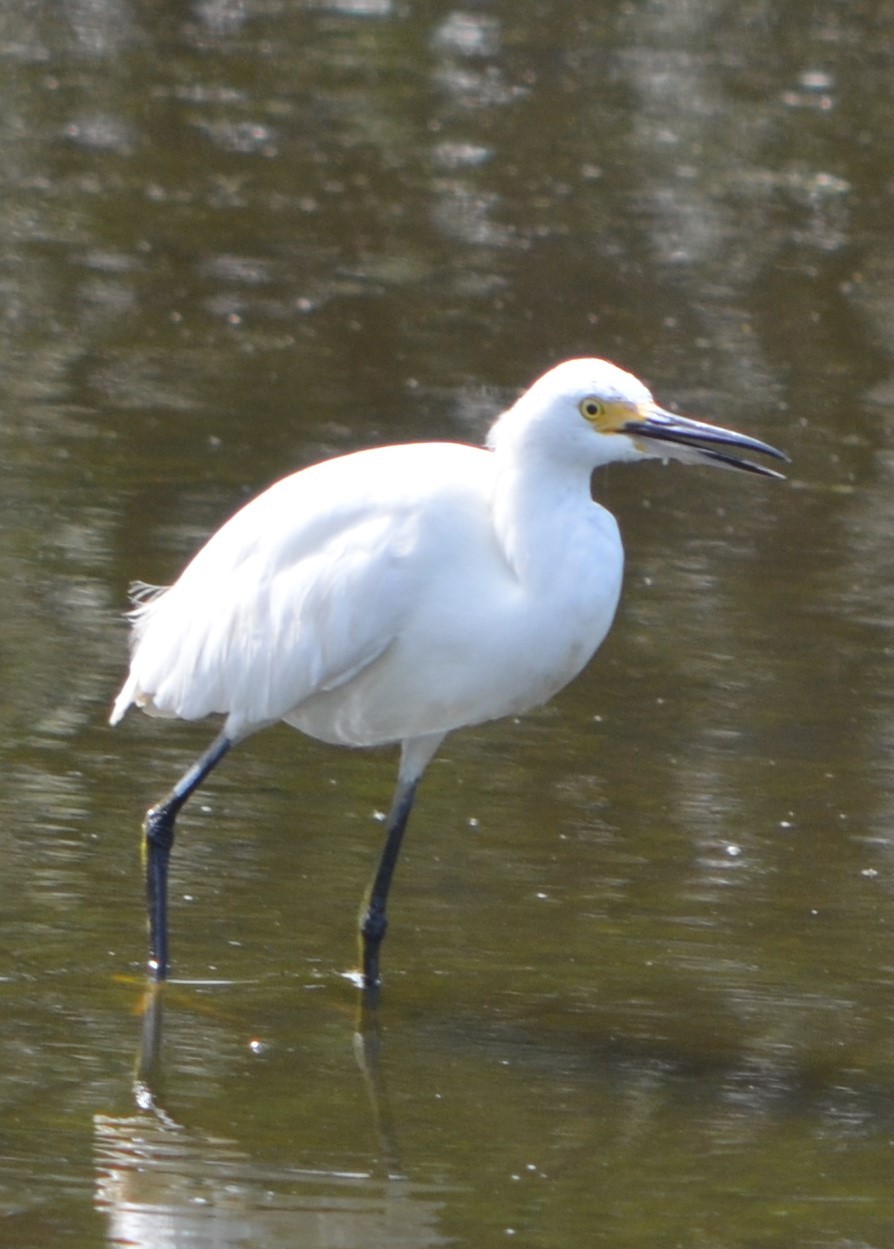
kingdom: Animalia
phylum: Chordata
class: Aves
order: Pelecaniformes
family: Ardeidae
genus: Egretta
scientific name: Egretta thula
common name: Snowy egret
